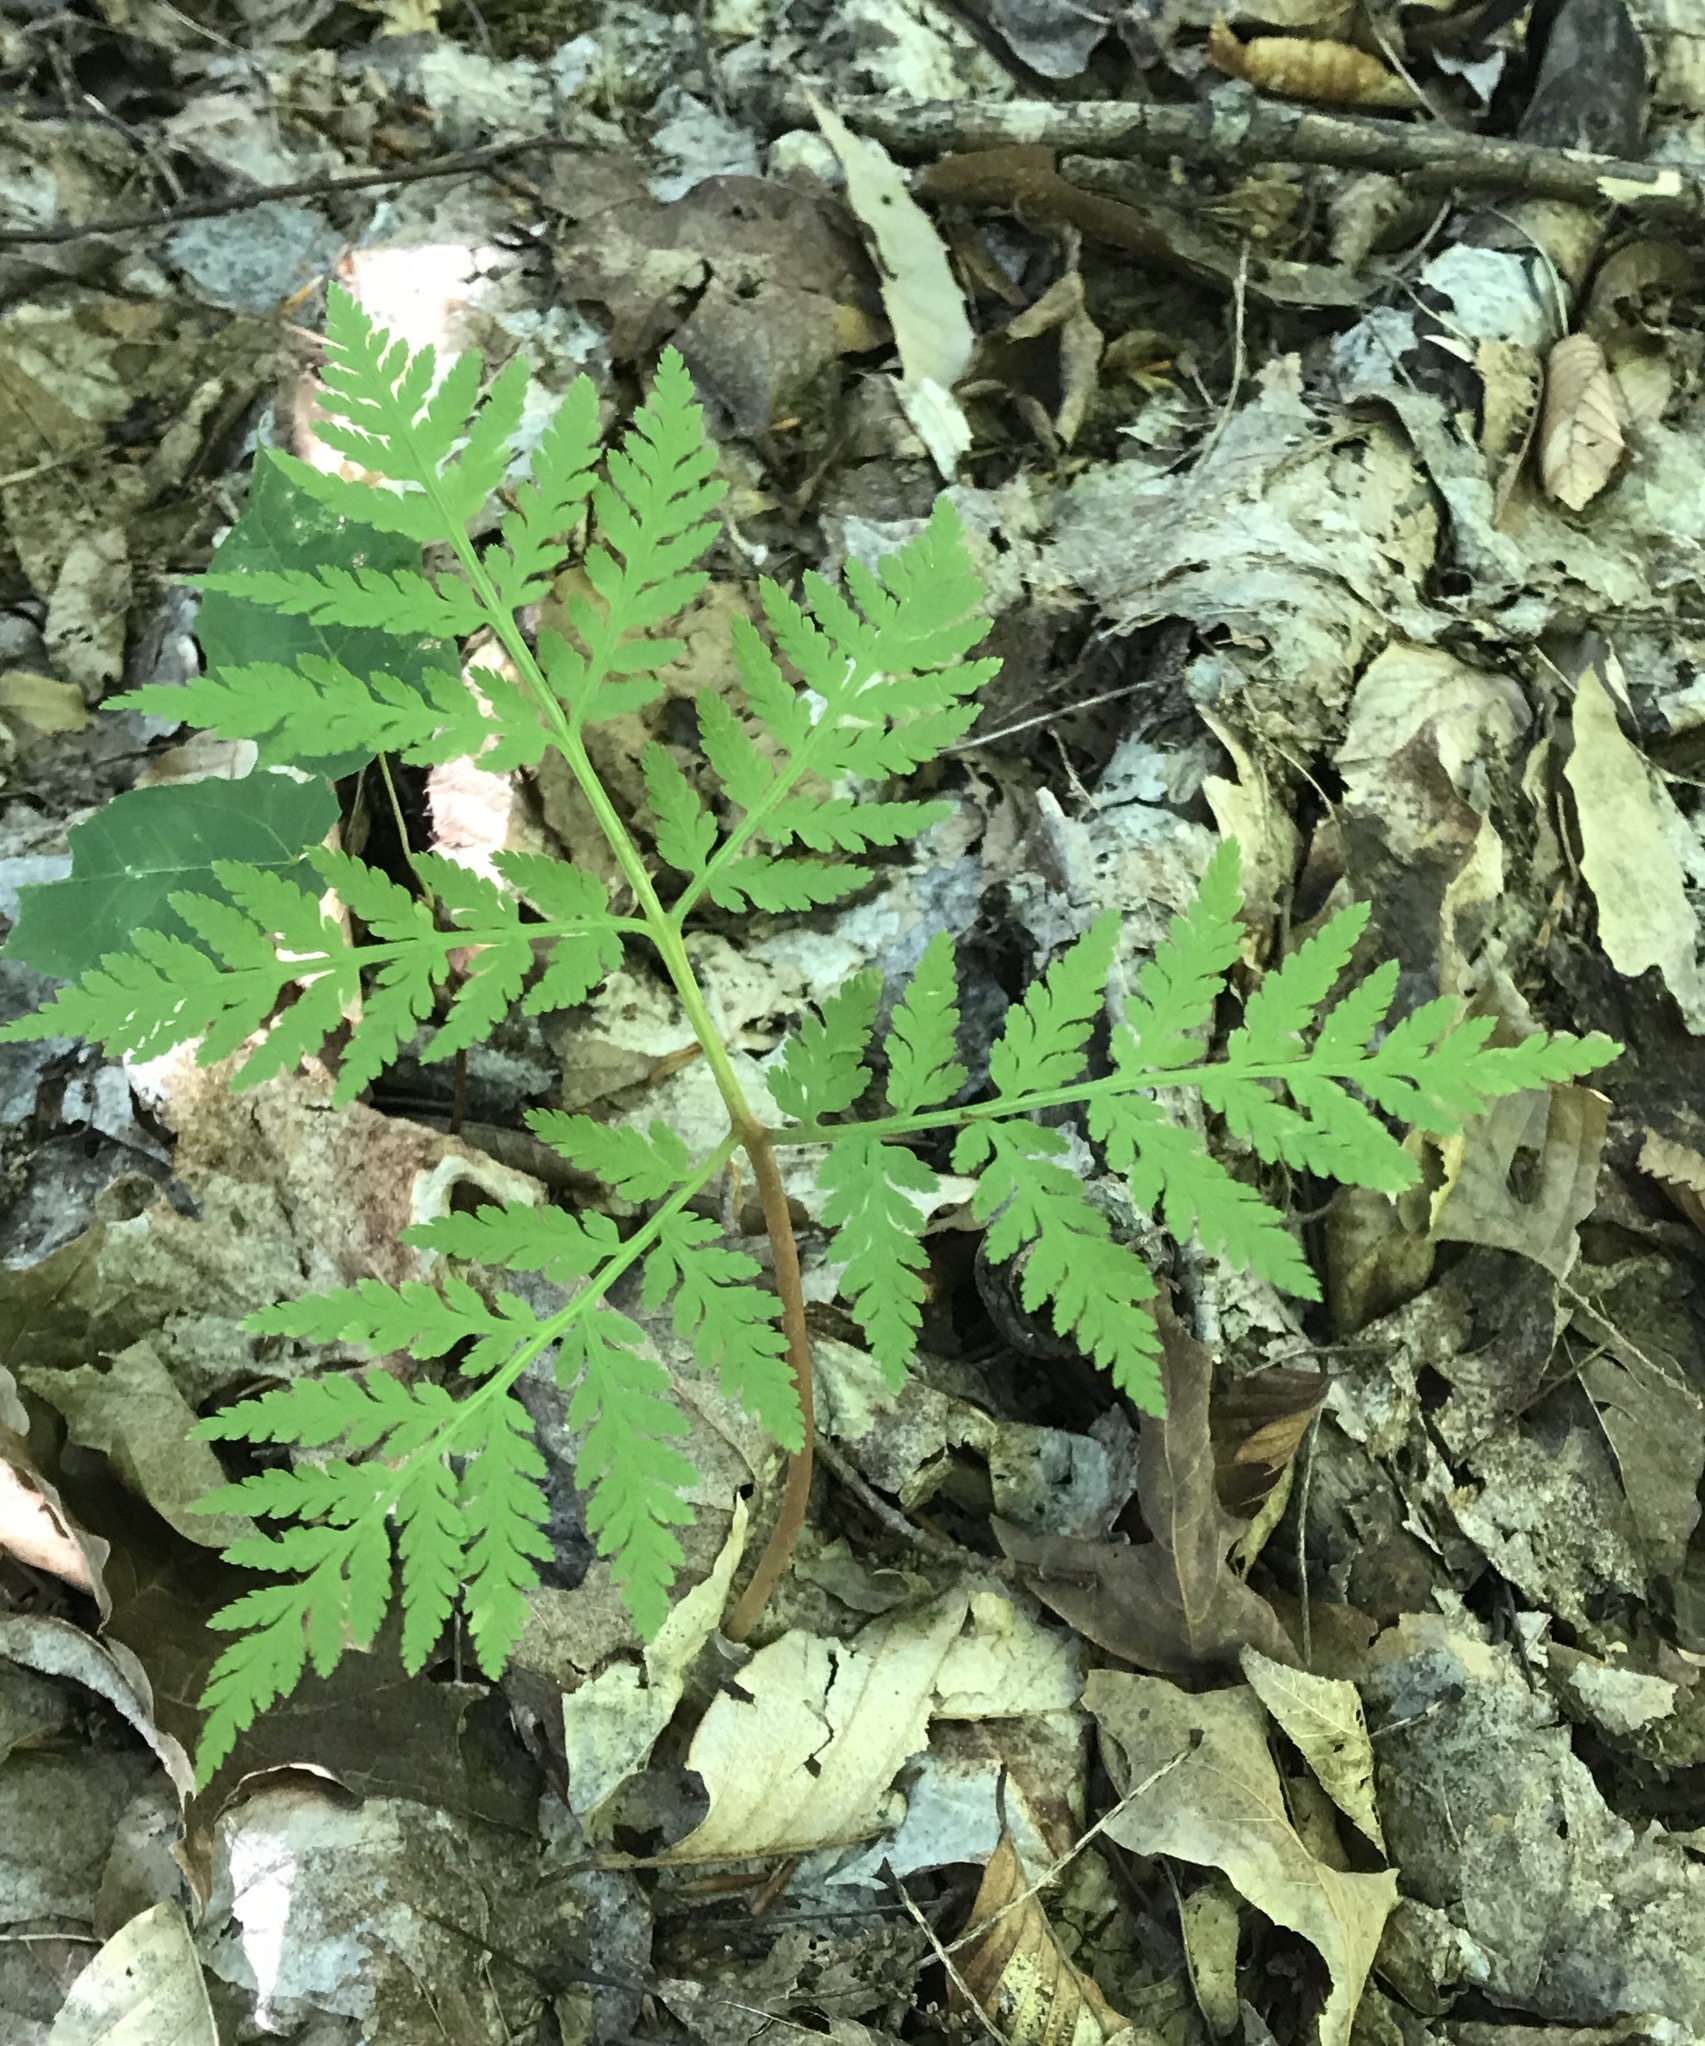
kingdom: Plantae
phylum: Tracheophyta
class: Polypodiopsida
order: Ophioglossales
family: Ophioglossaceae
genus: Botrypus
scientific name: Botrypus virginianus
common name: Common grapefern
